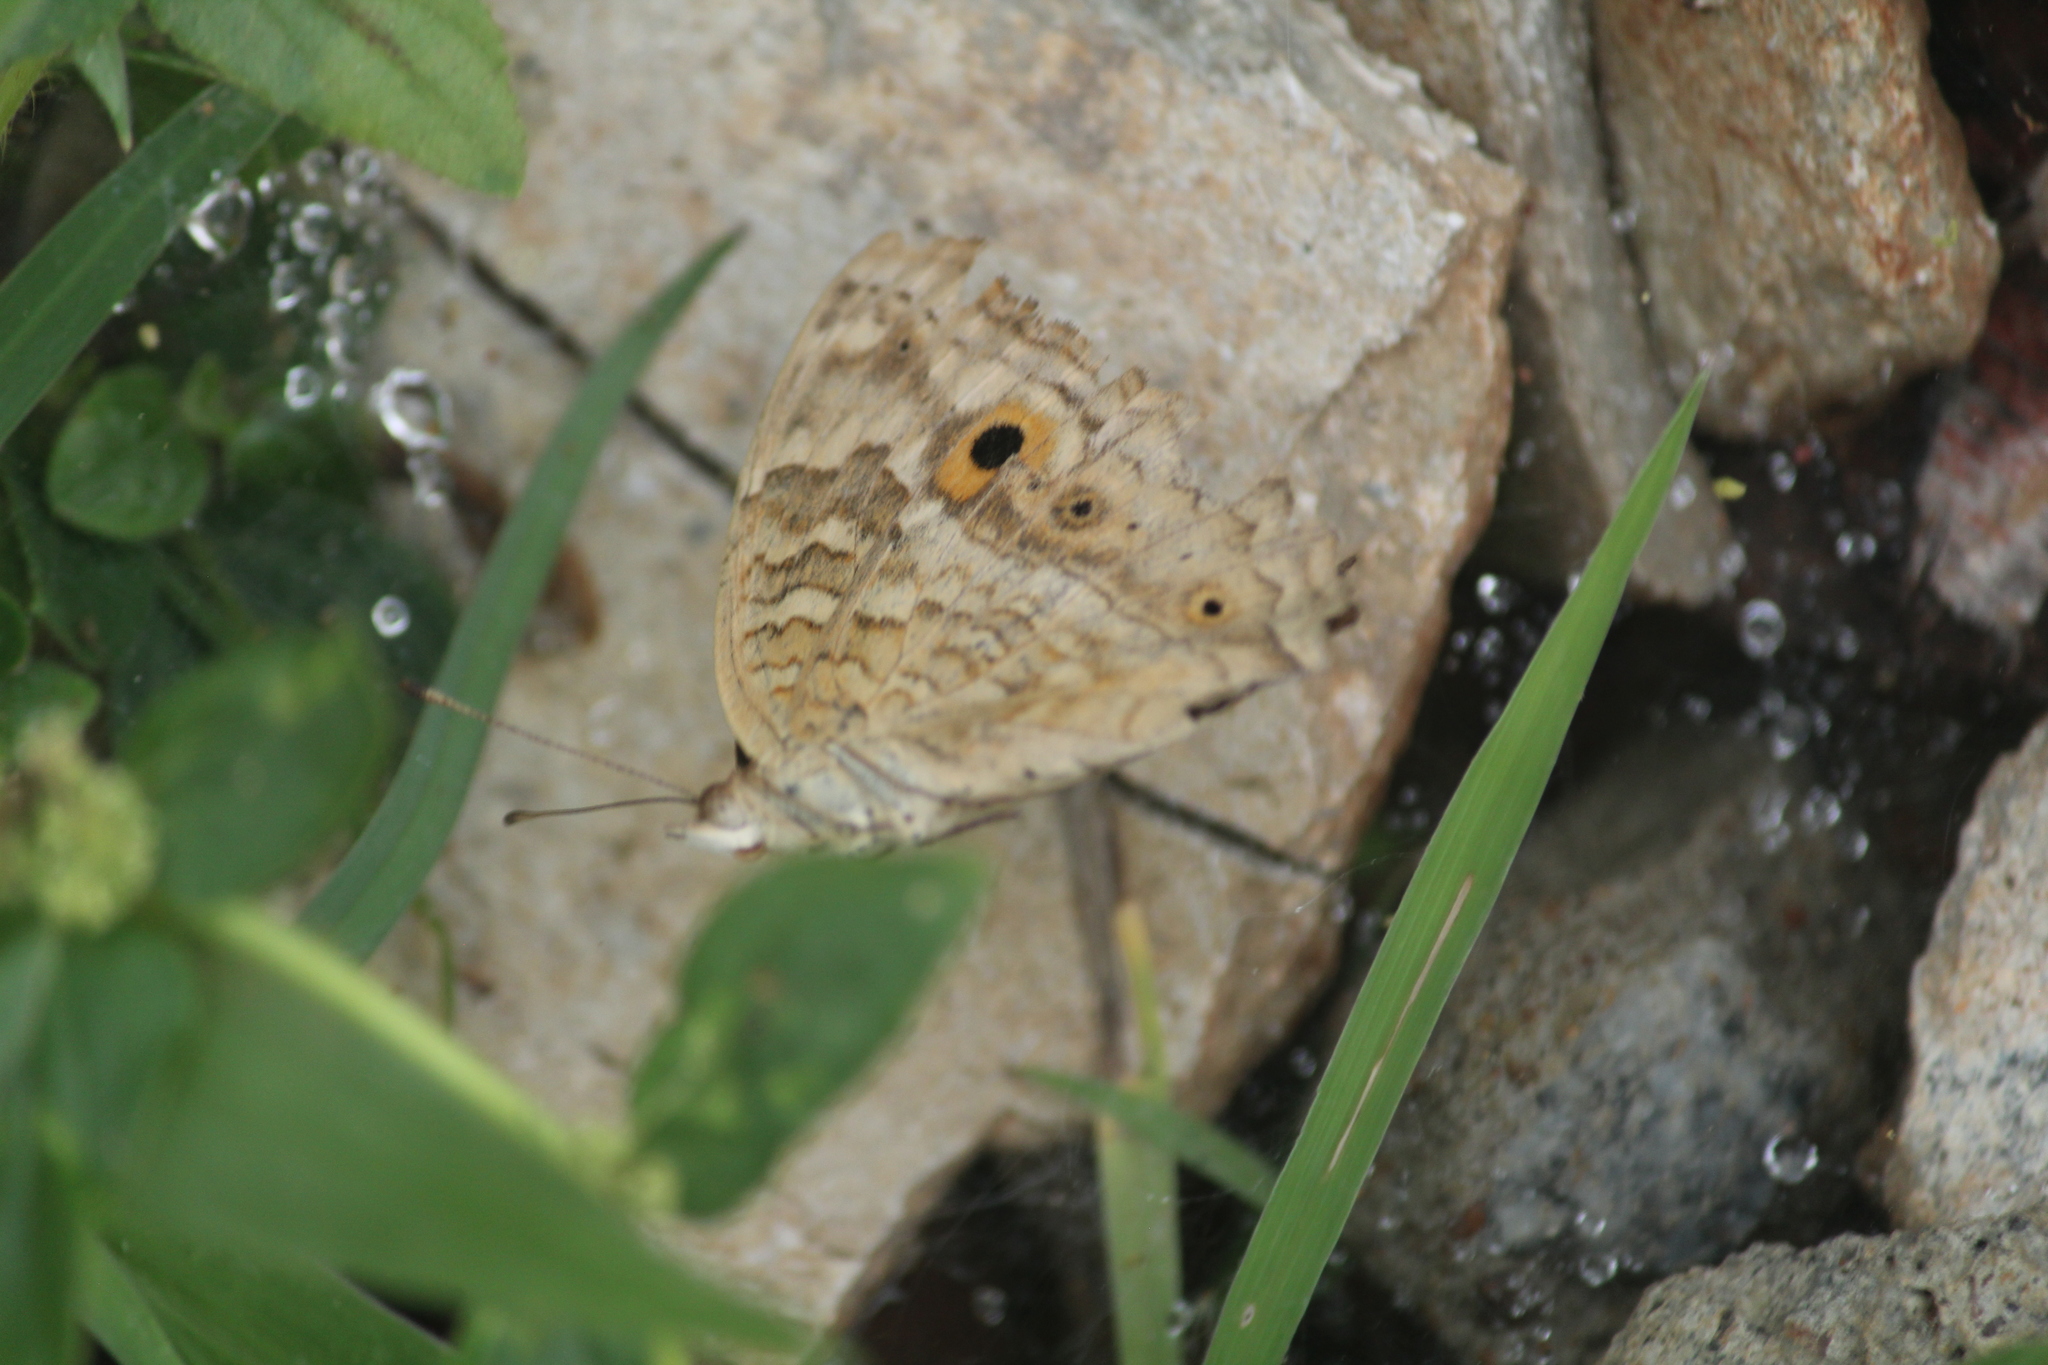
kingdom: Animalia
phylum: Arthropoda
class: Insecta
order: Lepidoptera
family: Nymphalidae
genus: Junonia
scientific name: Junonia lemonias
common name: Lemon pansy
